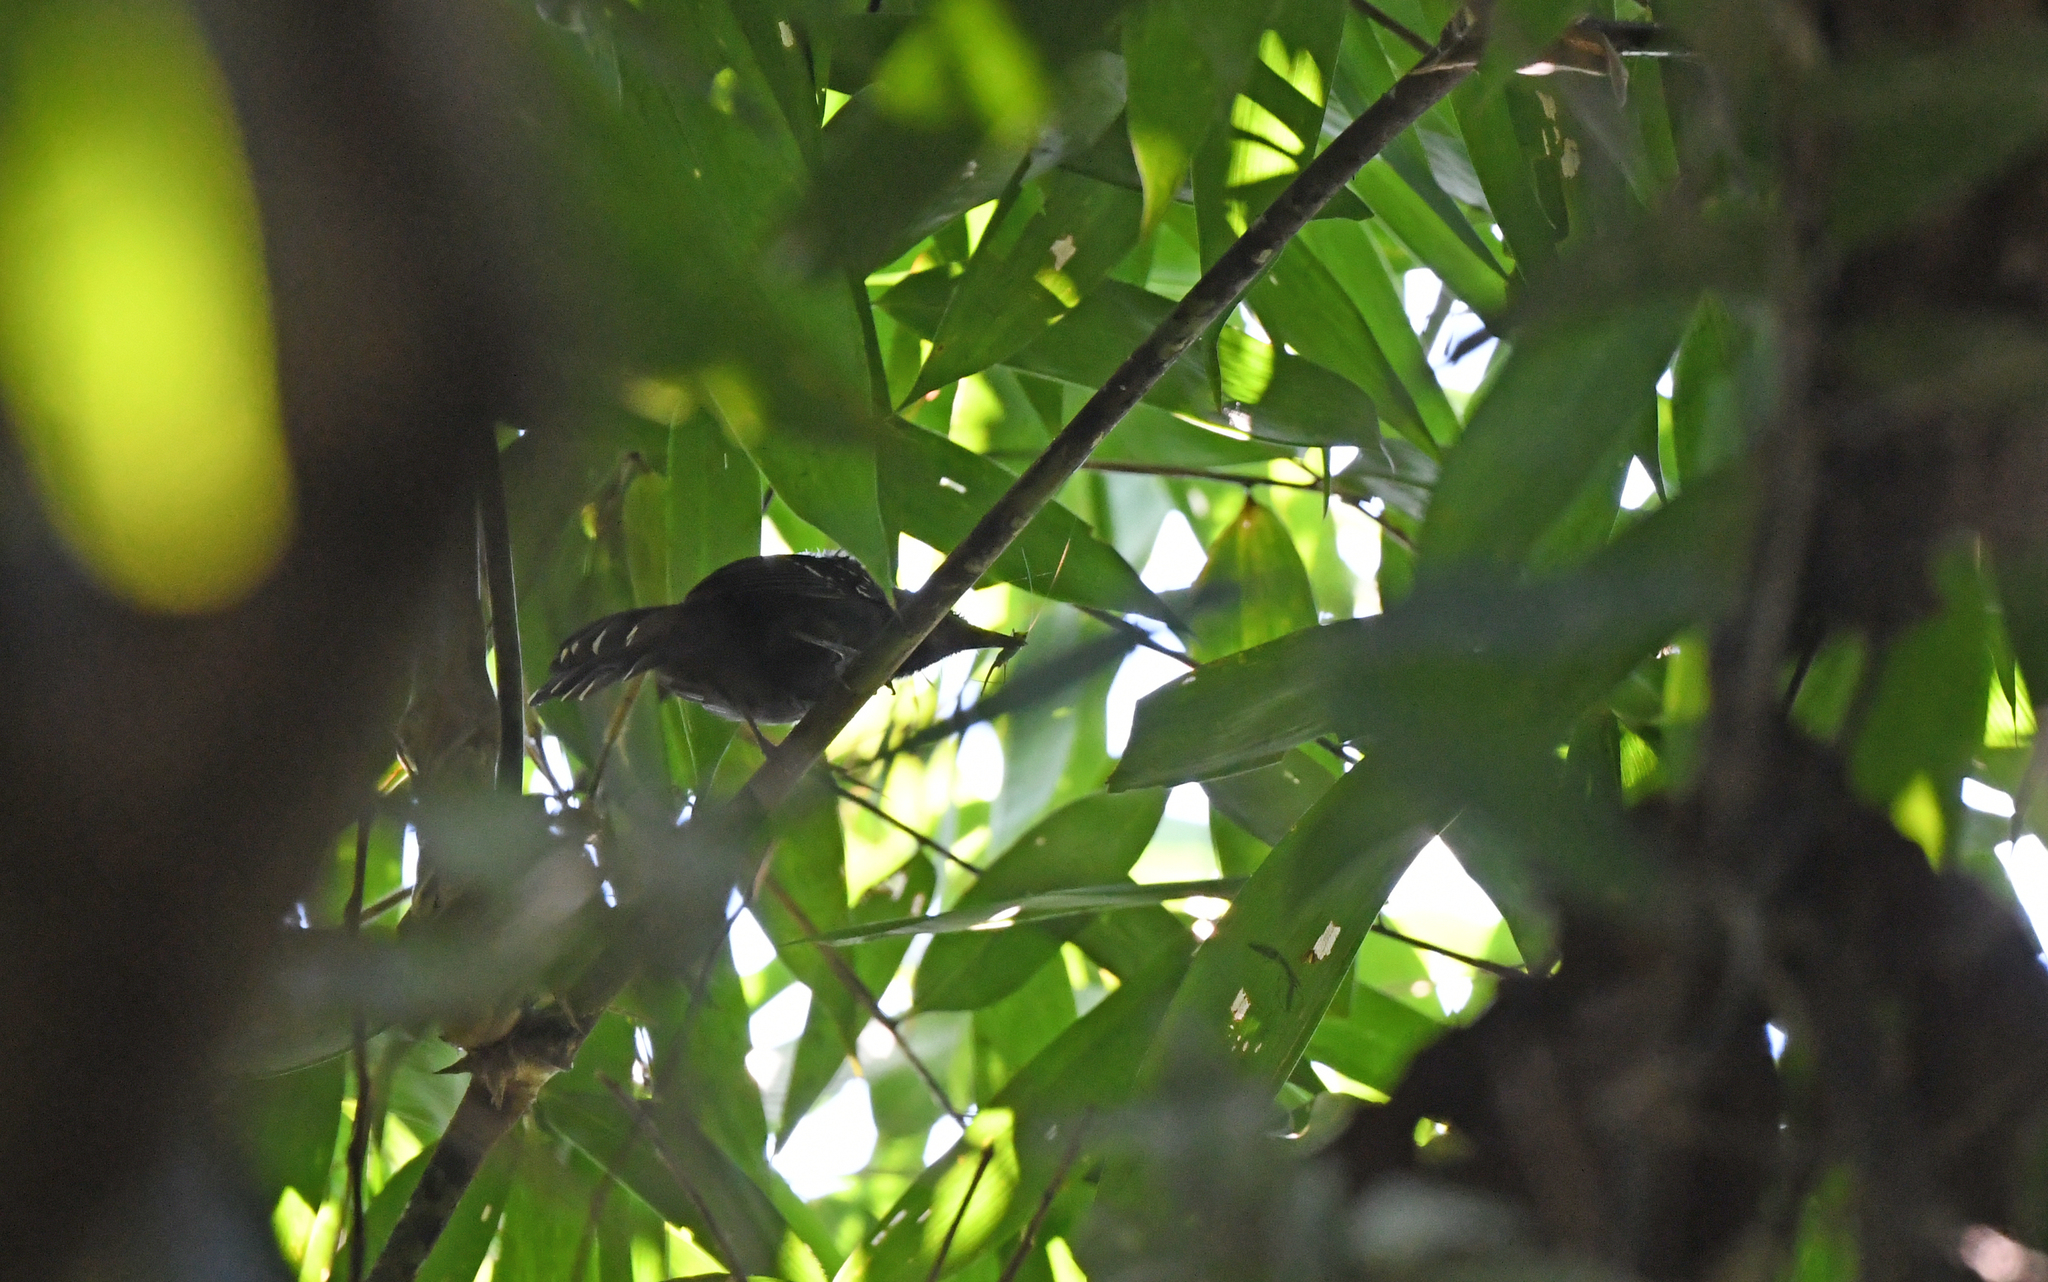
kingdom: Animalia
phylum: Chordata
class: Aves
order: Passeriformes
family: Thamnophilidae
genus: Cercomacra
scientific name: Cercomacra manu
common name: Manu antbird
